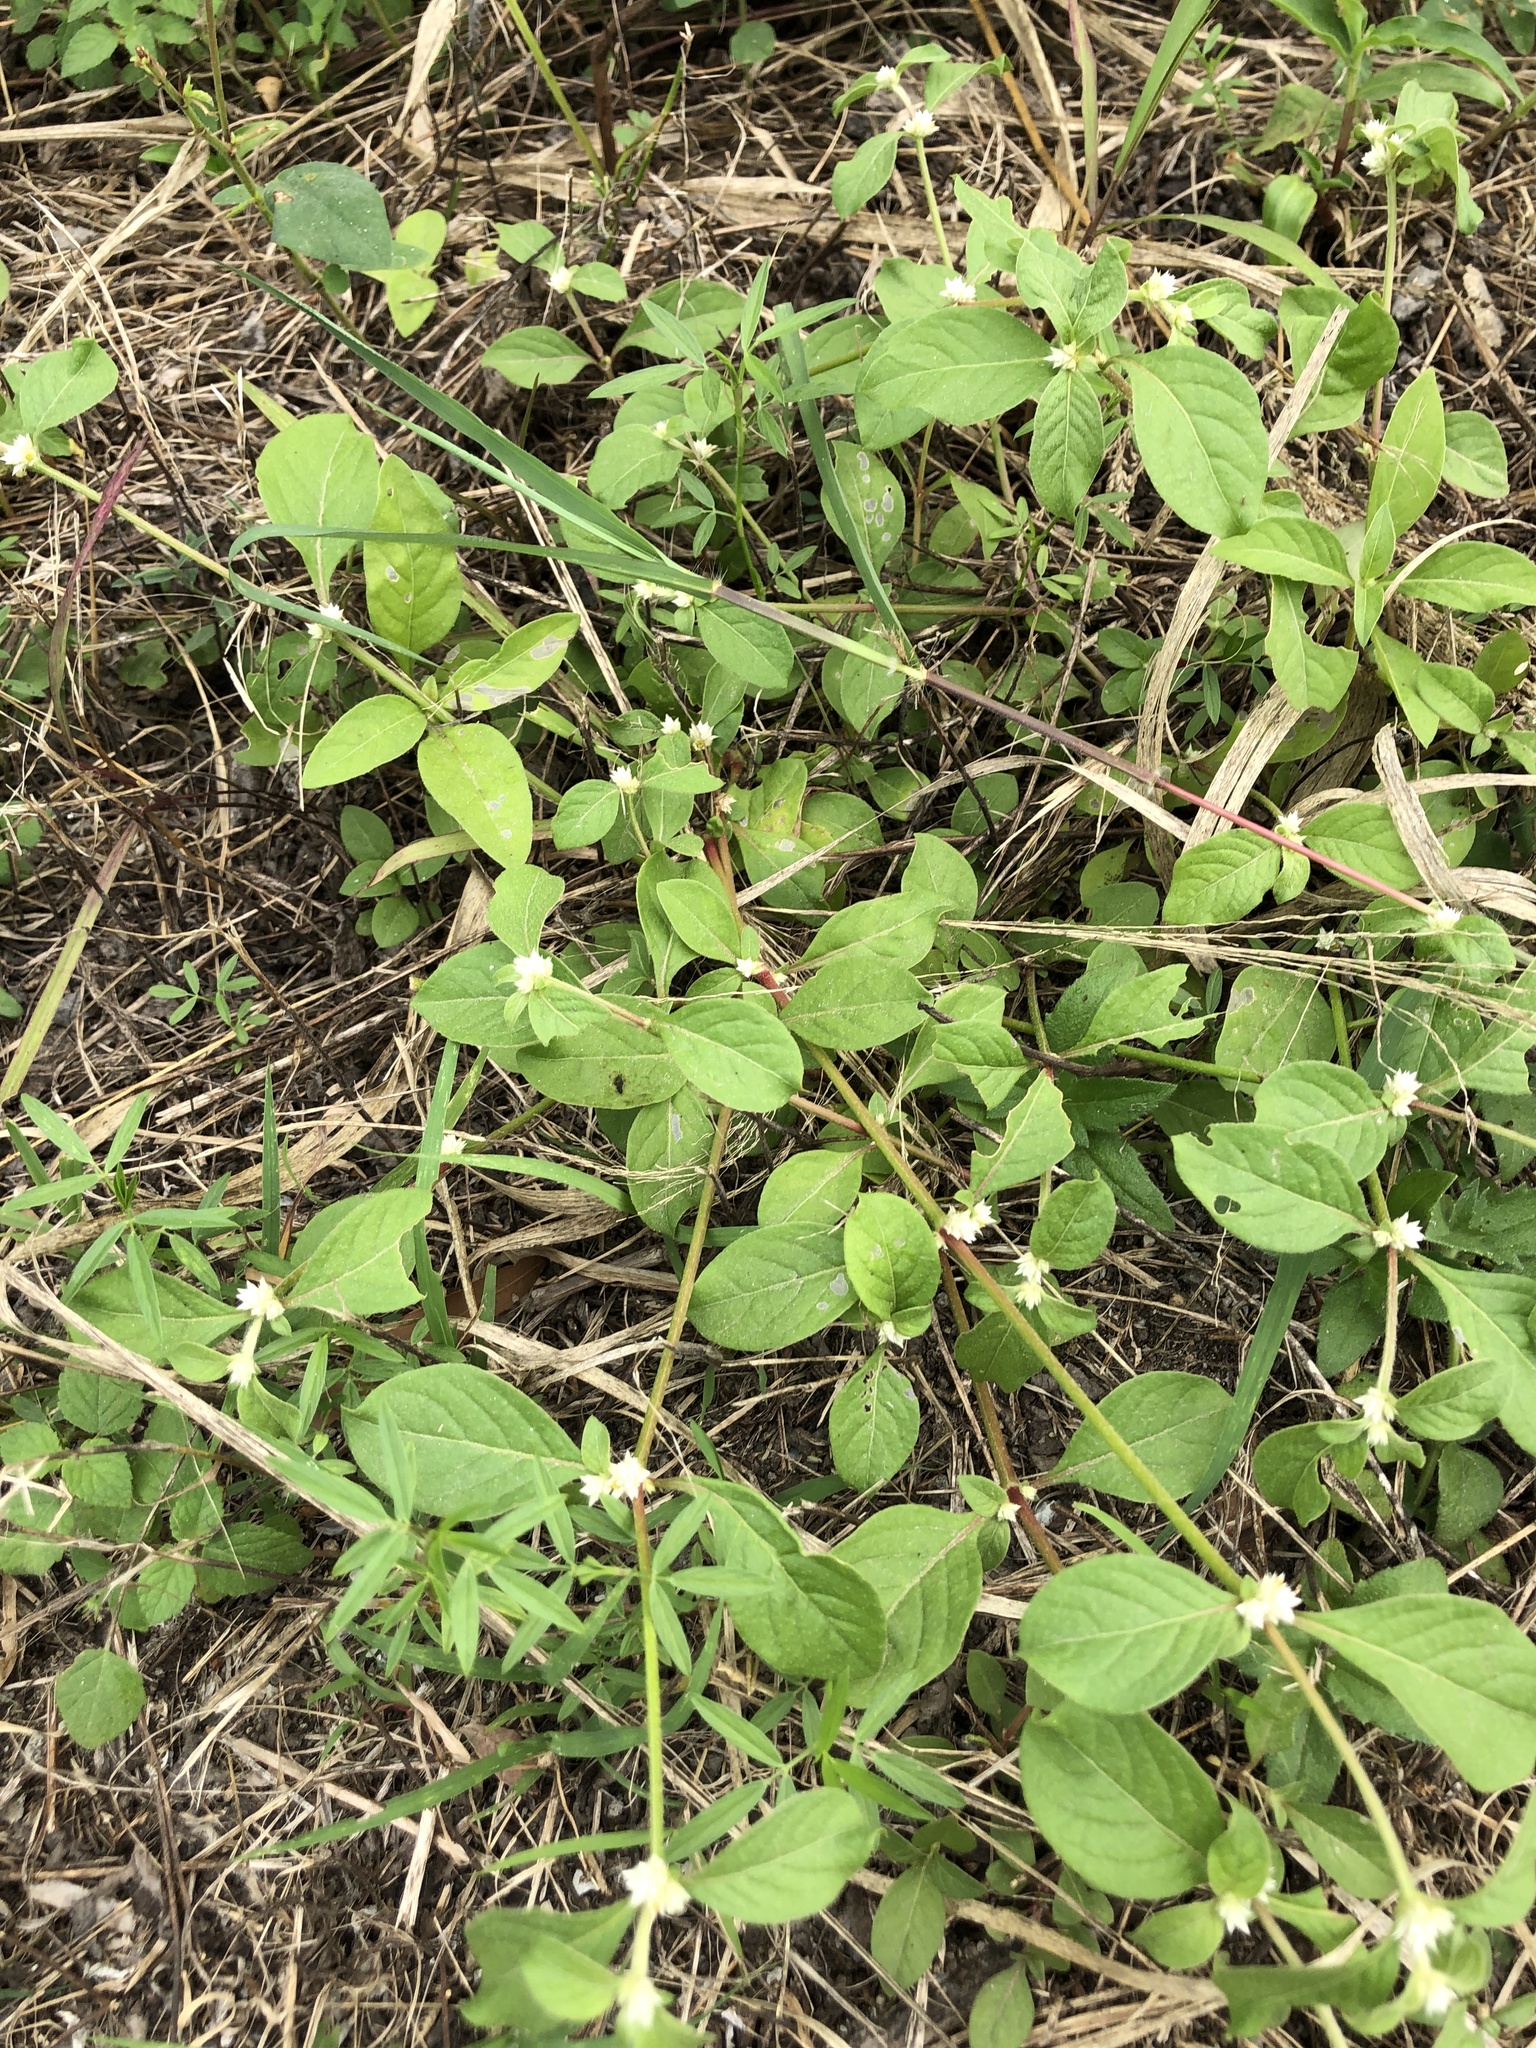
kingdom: Plantae
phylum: Tracheophyta
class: Magnoliopsida
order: Caryophyllales
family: Amaranthaceae
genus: Alternanthera
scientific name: Alternanthera ficoidea
